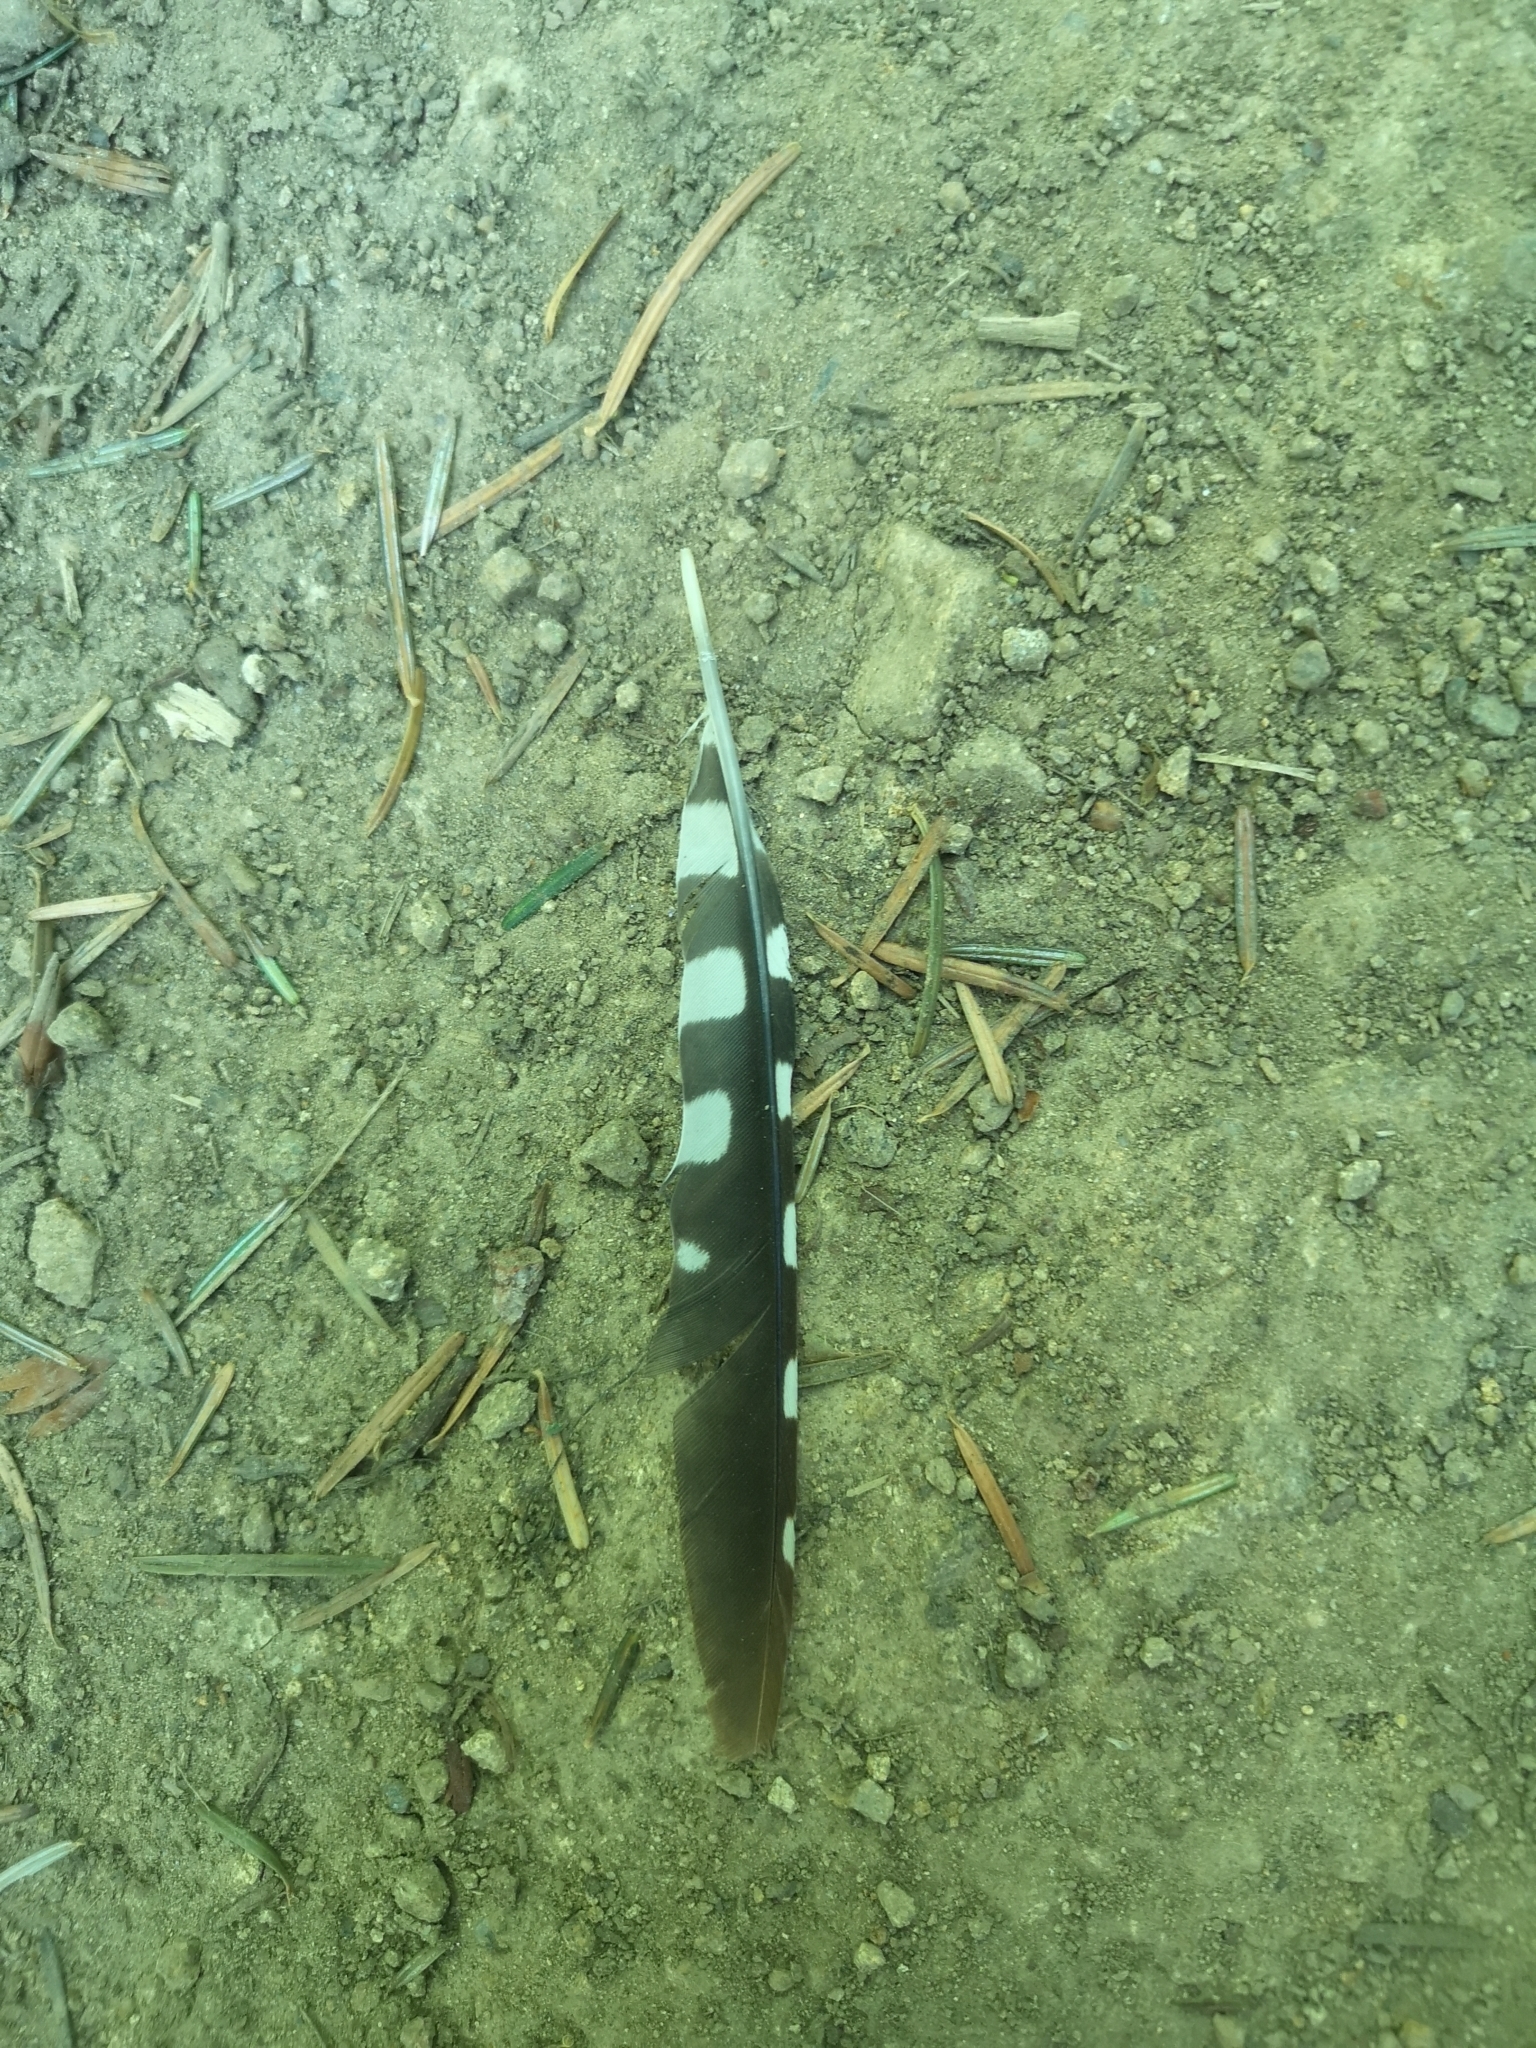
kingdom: Animalia
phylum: Chordata
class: Aves
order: Piciformes
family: Picidae
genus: Dendrocopos
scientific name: Dendrocopos major
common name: Great spotted woodpecker
